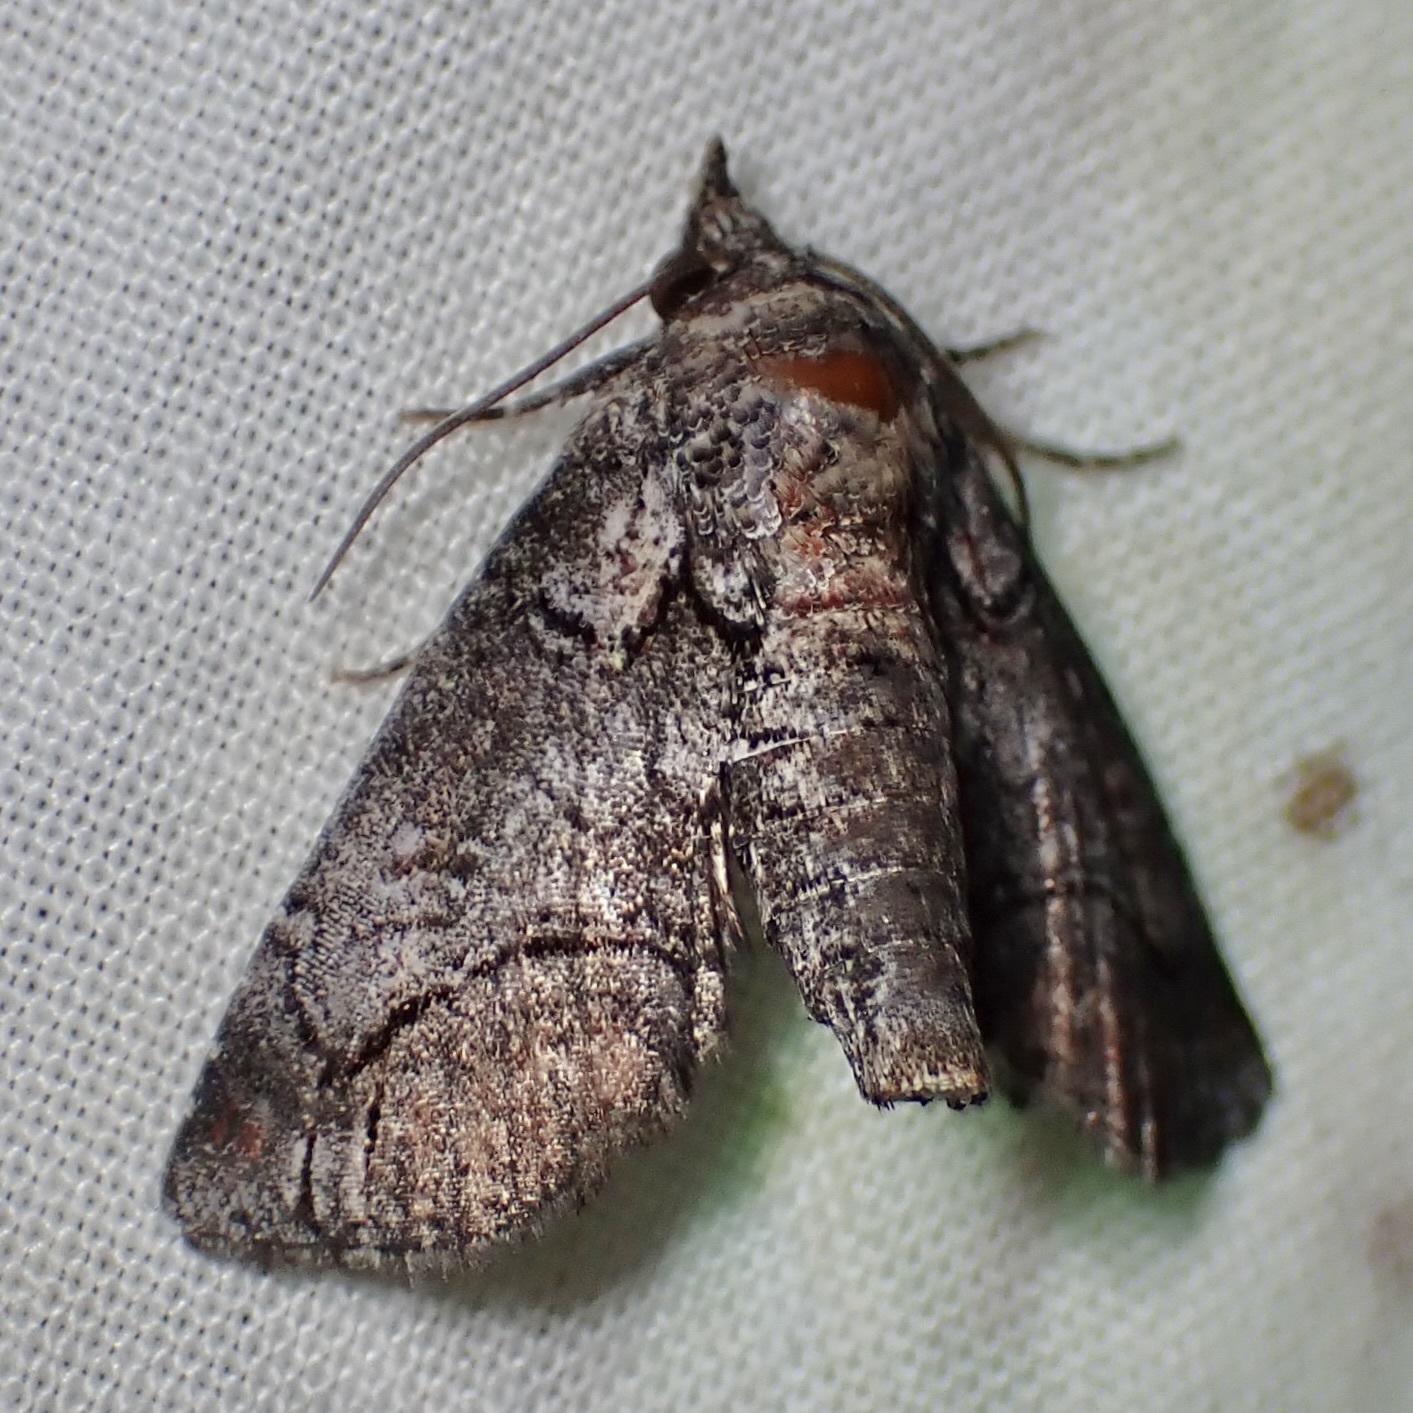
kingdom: Animalia
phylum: Arthropoda
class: Insecta
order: Lepidoptera
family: Euteliidae
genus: Paectes
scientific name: Paectes abrostolella
